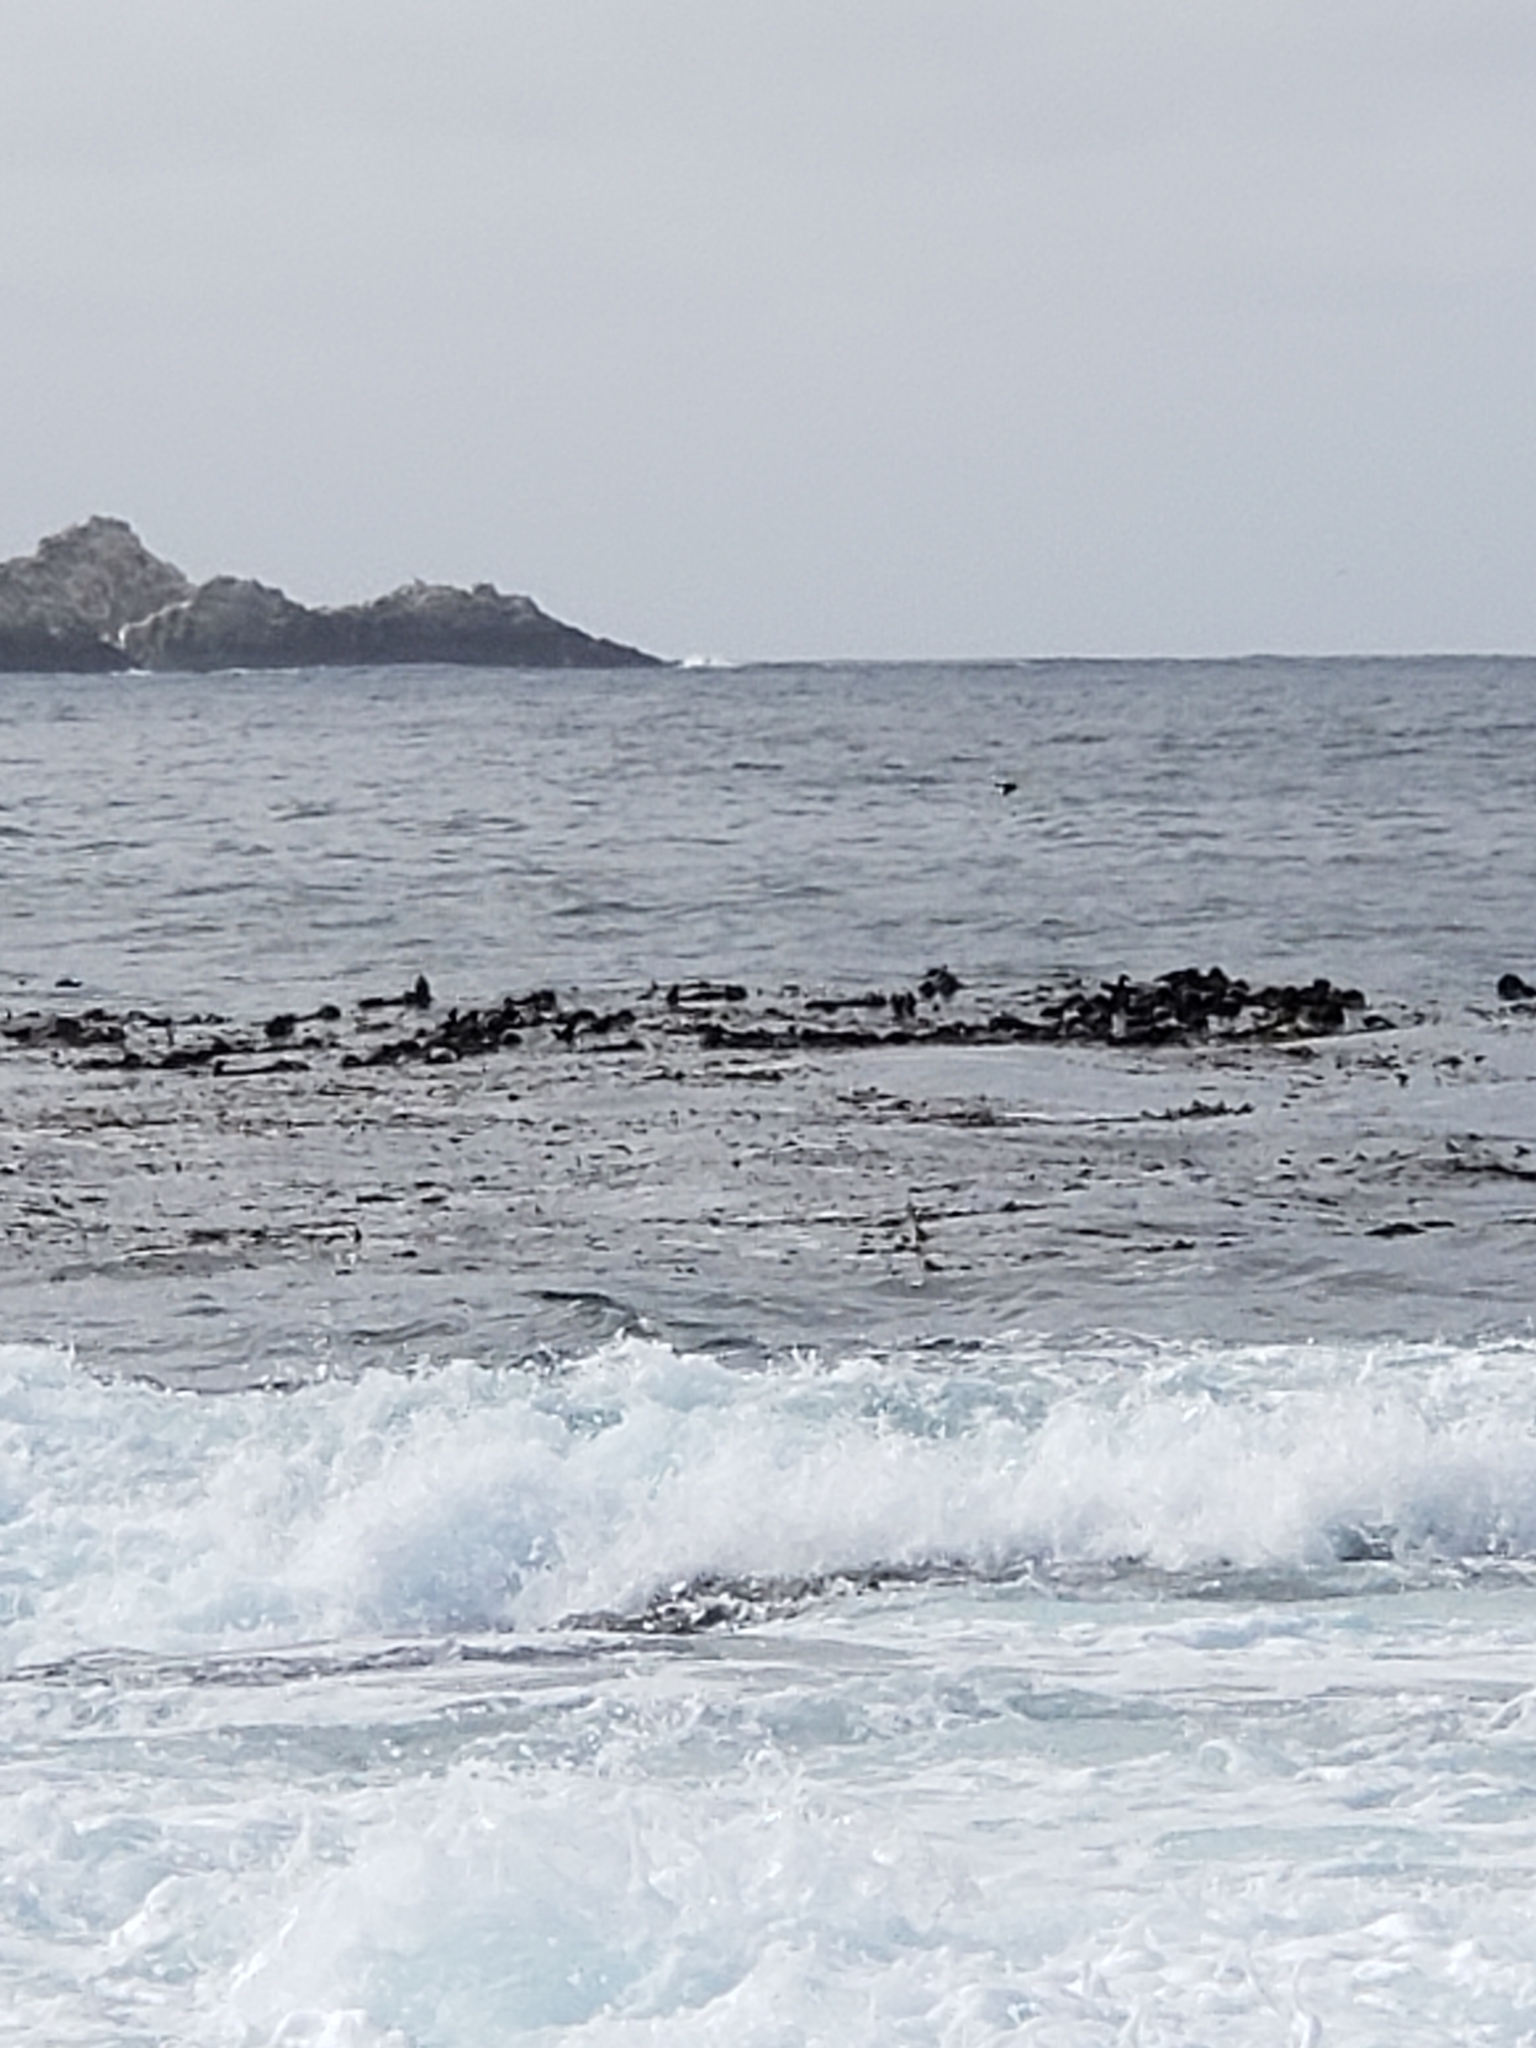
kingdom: Animalia
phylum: Chordata
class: Mammalia
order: Carnivora
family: Mustelidae
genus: Enhydra
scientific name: Enhydra lutris
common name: Sea otter
